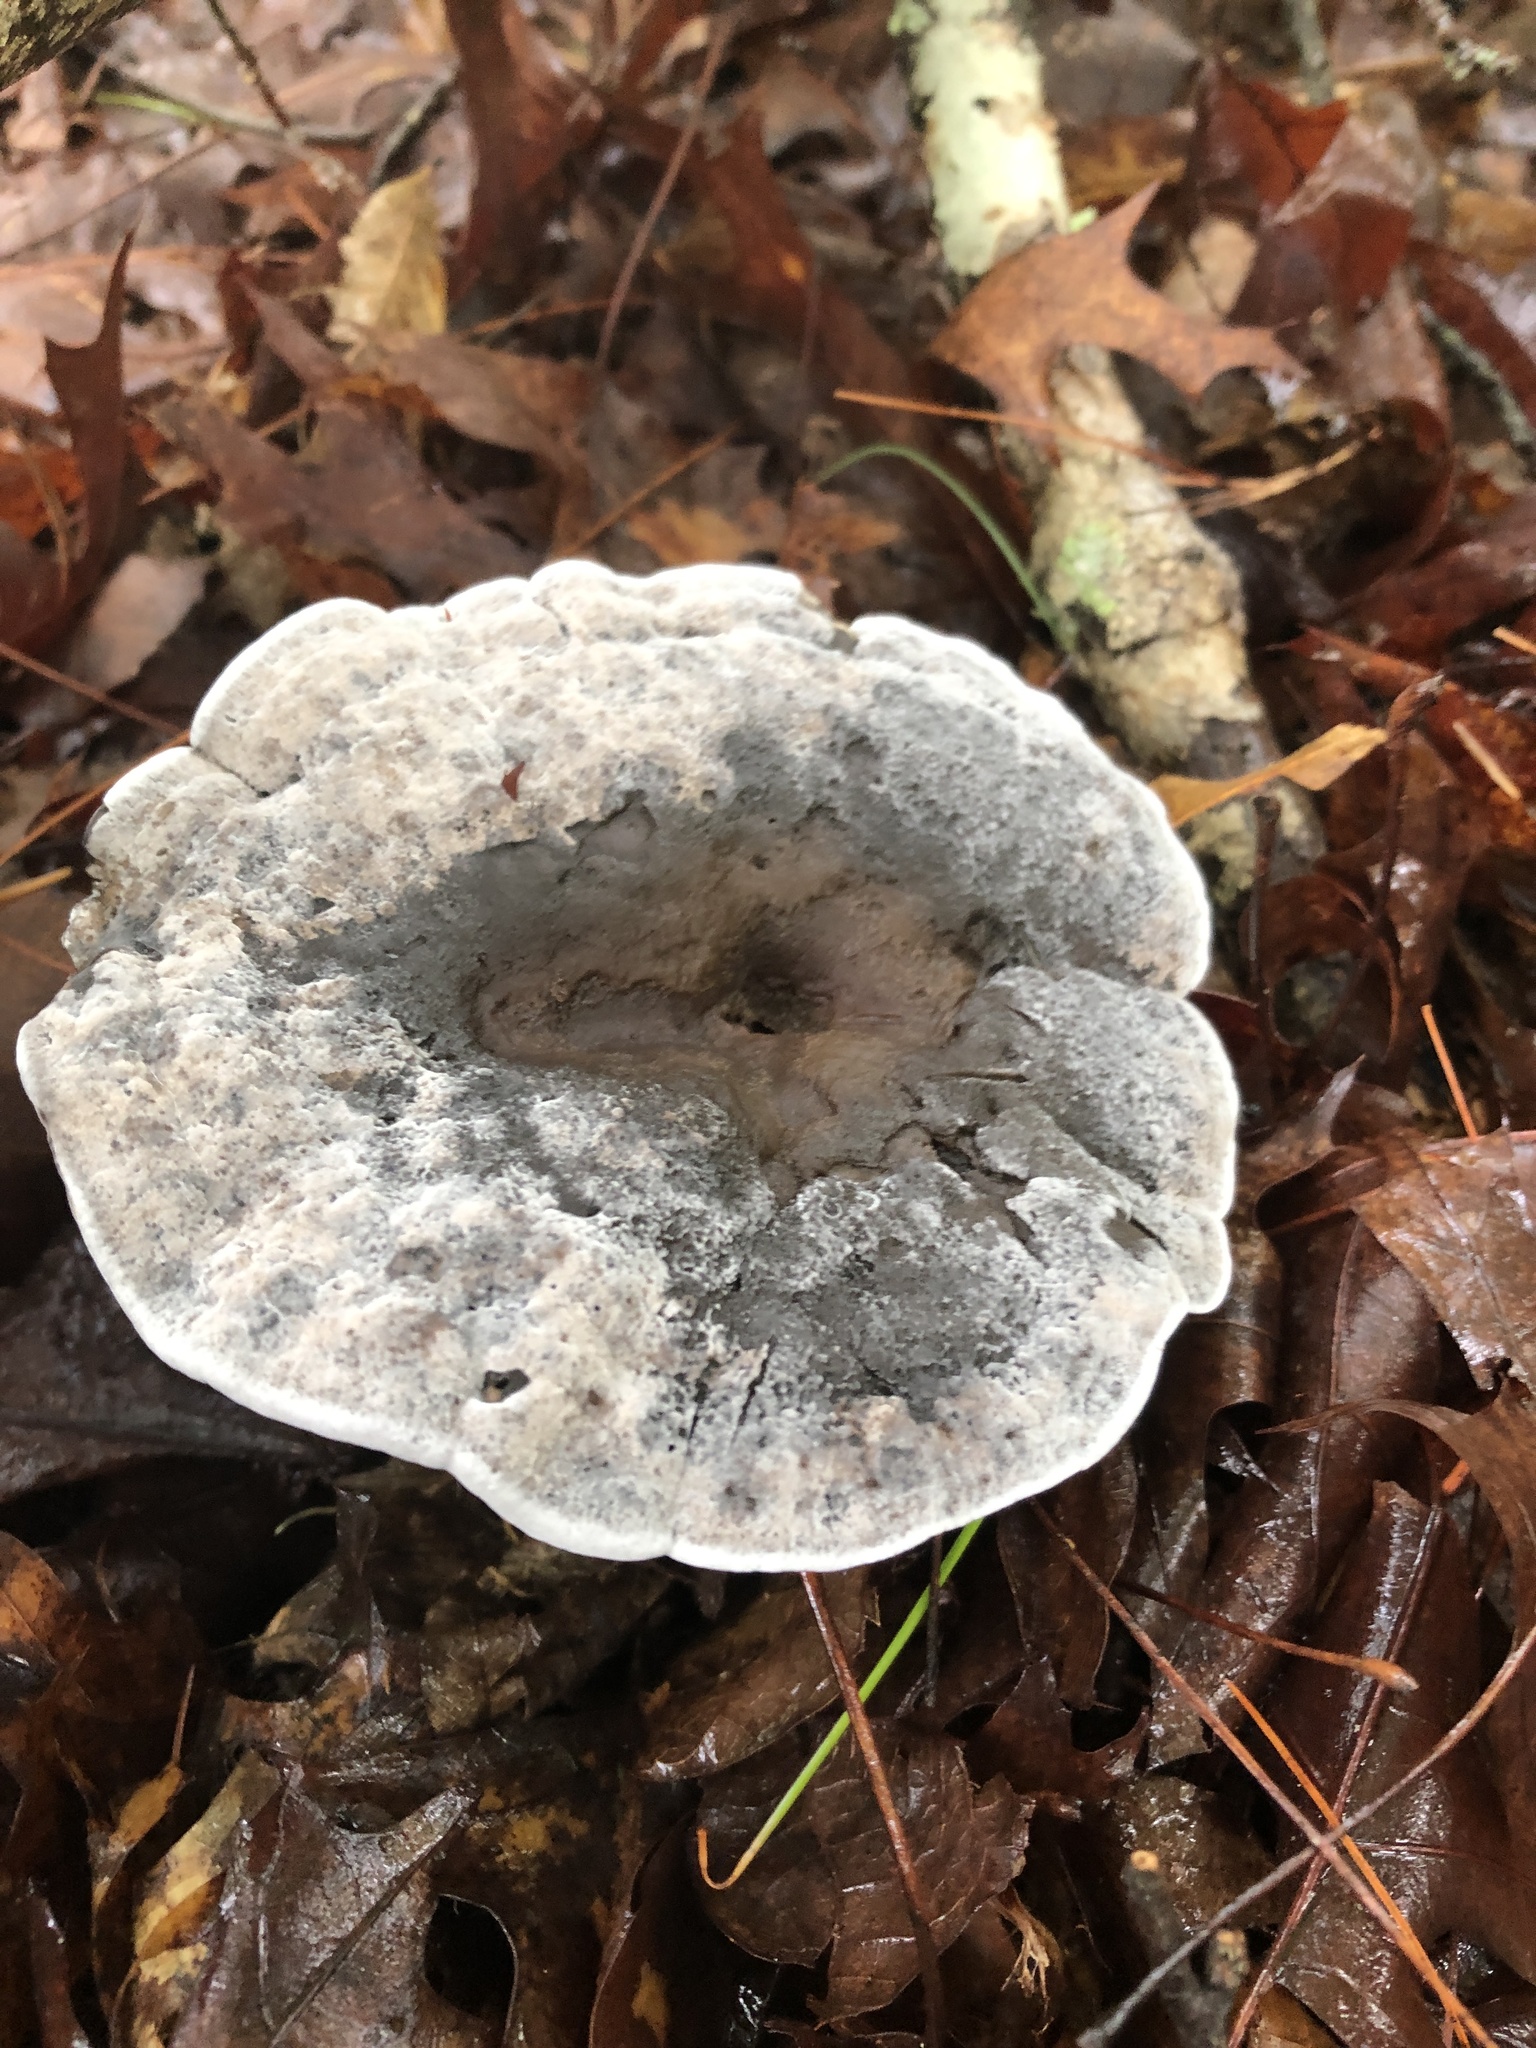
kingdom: Fungi
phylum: Basidiomycota
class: Agaricomycetes
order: Thelephorales
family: Thelephoraceae
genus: Phellodon
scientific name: Phellodon niger
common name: Black tooth
